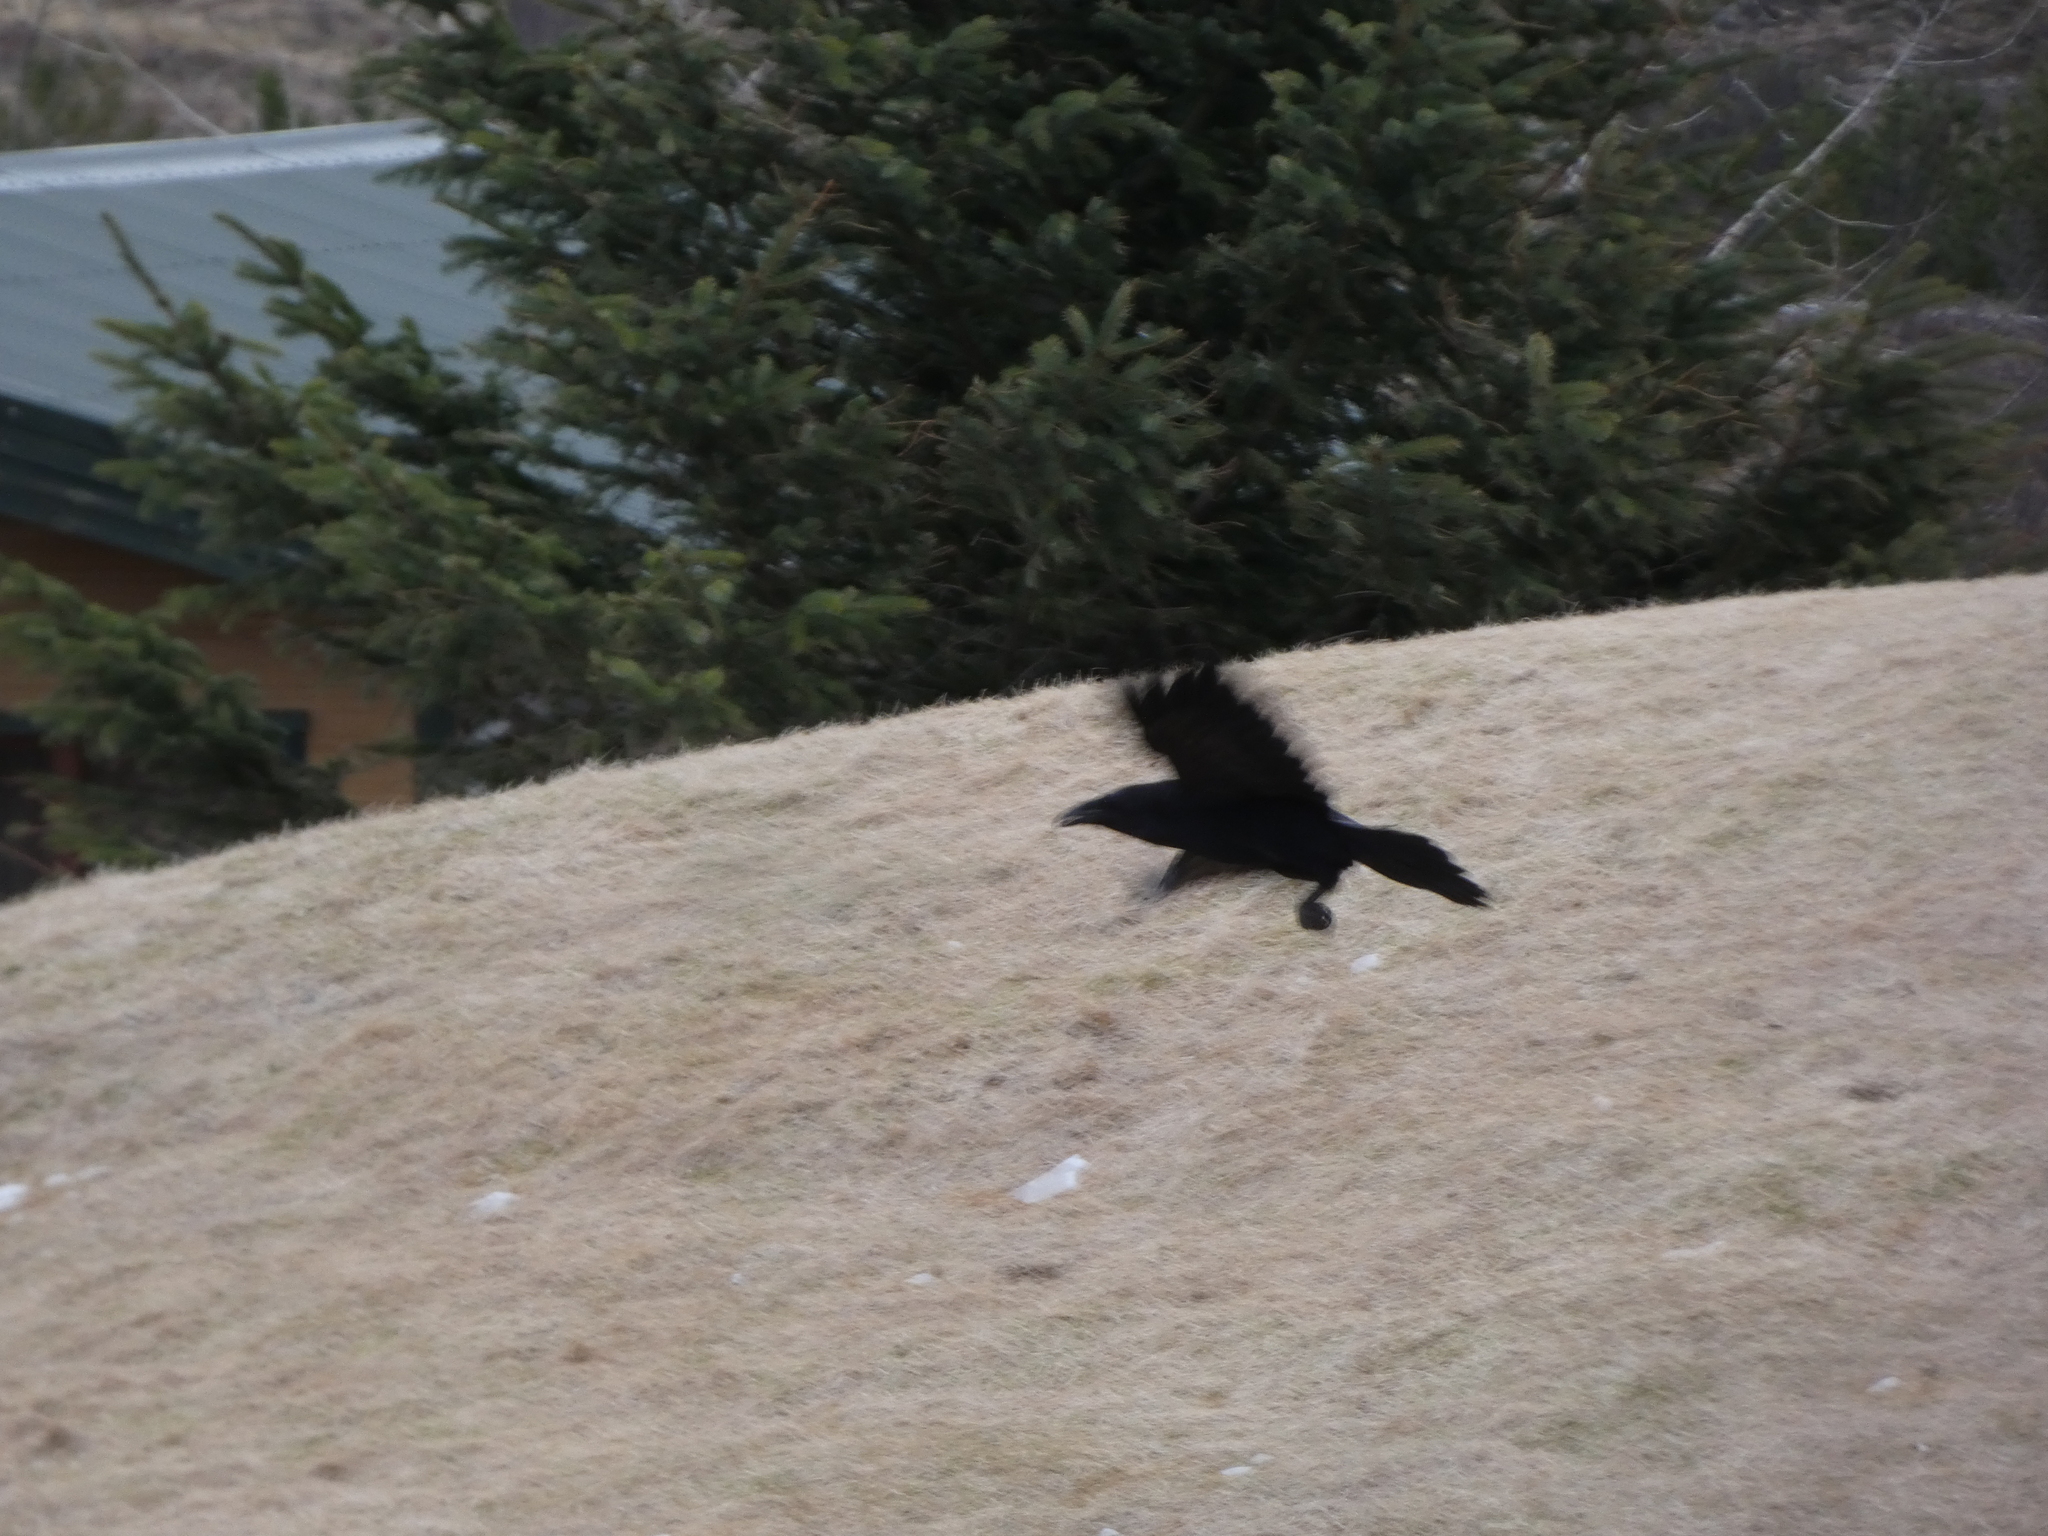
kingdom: Animalia
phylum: Chordata
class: Aves
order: Passeriformes
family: Corvidae
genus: Corvus
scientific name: Corvus corax
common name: Common raven
